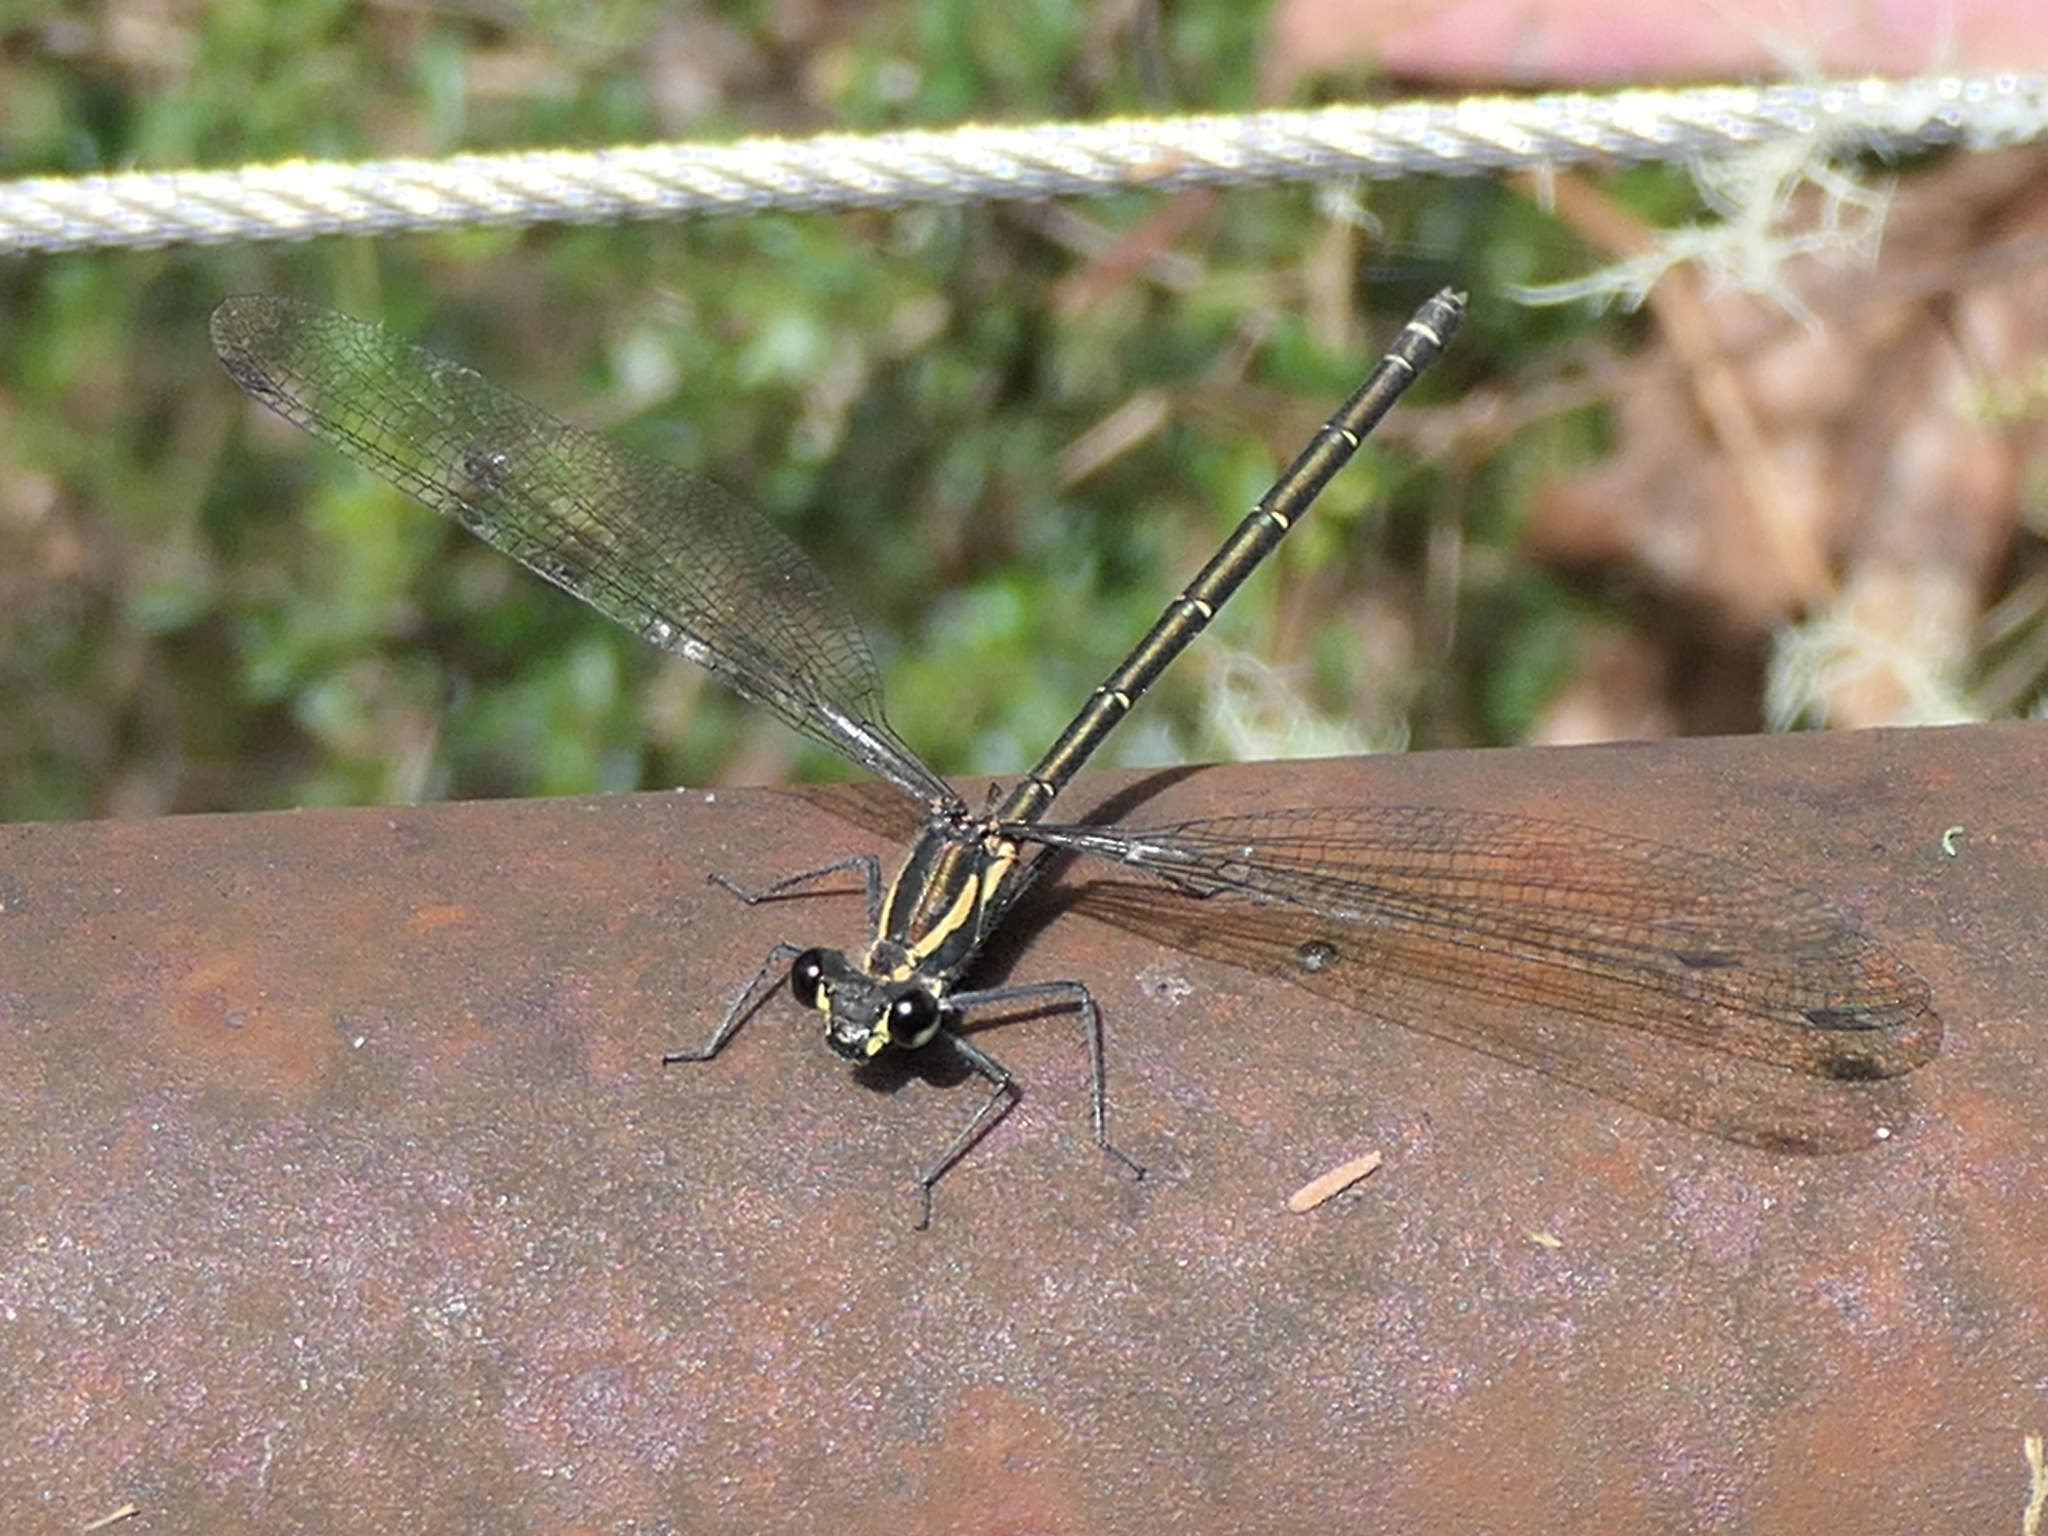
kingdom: Animalia
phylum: Arthropoda
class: Insecta
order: Odonata
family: Argiolestidae
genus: Austroargiolestes
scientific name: Austroargiolestes icteromelas
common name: Common flatwing
